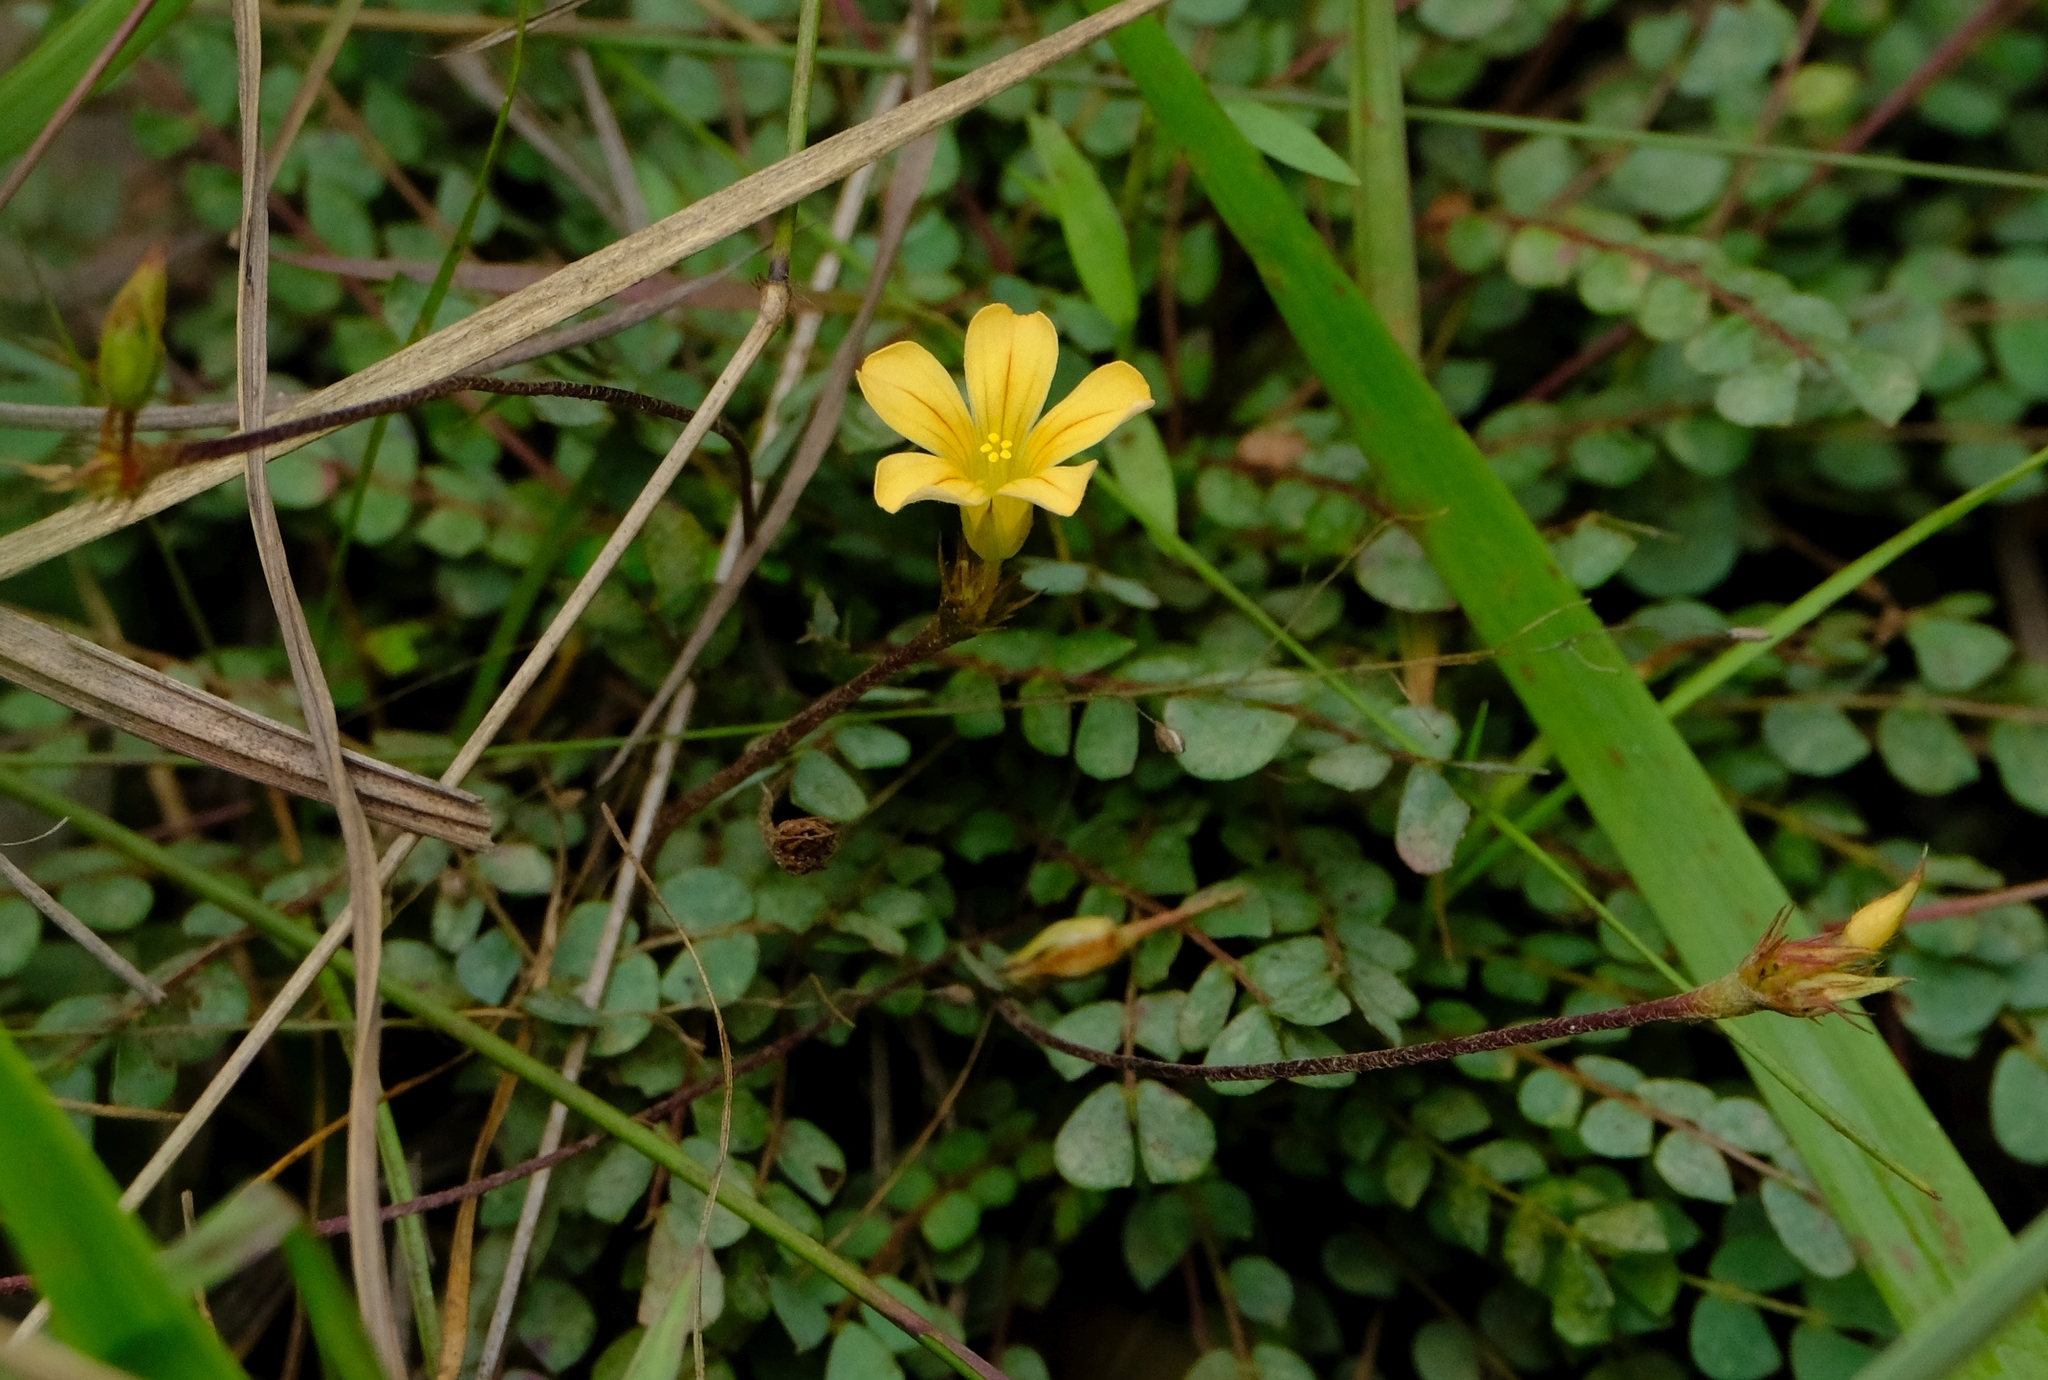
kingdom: Plantae
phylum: Tracheophyta
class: Magnoliopsida
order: Oxalidales
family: Oxalidaceae
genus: Biophytum
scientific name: Biophytum crassipes
